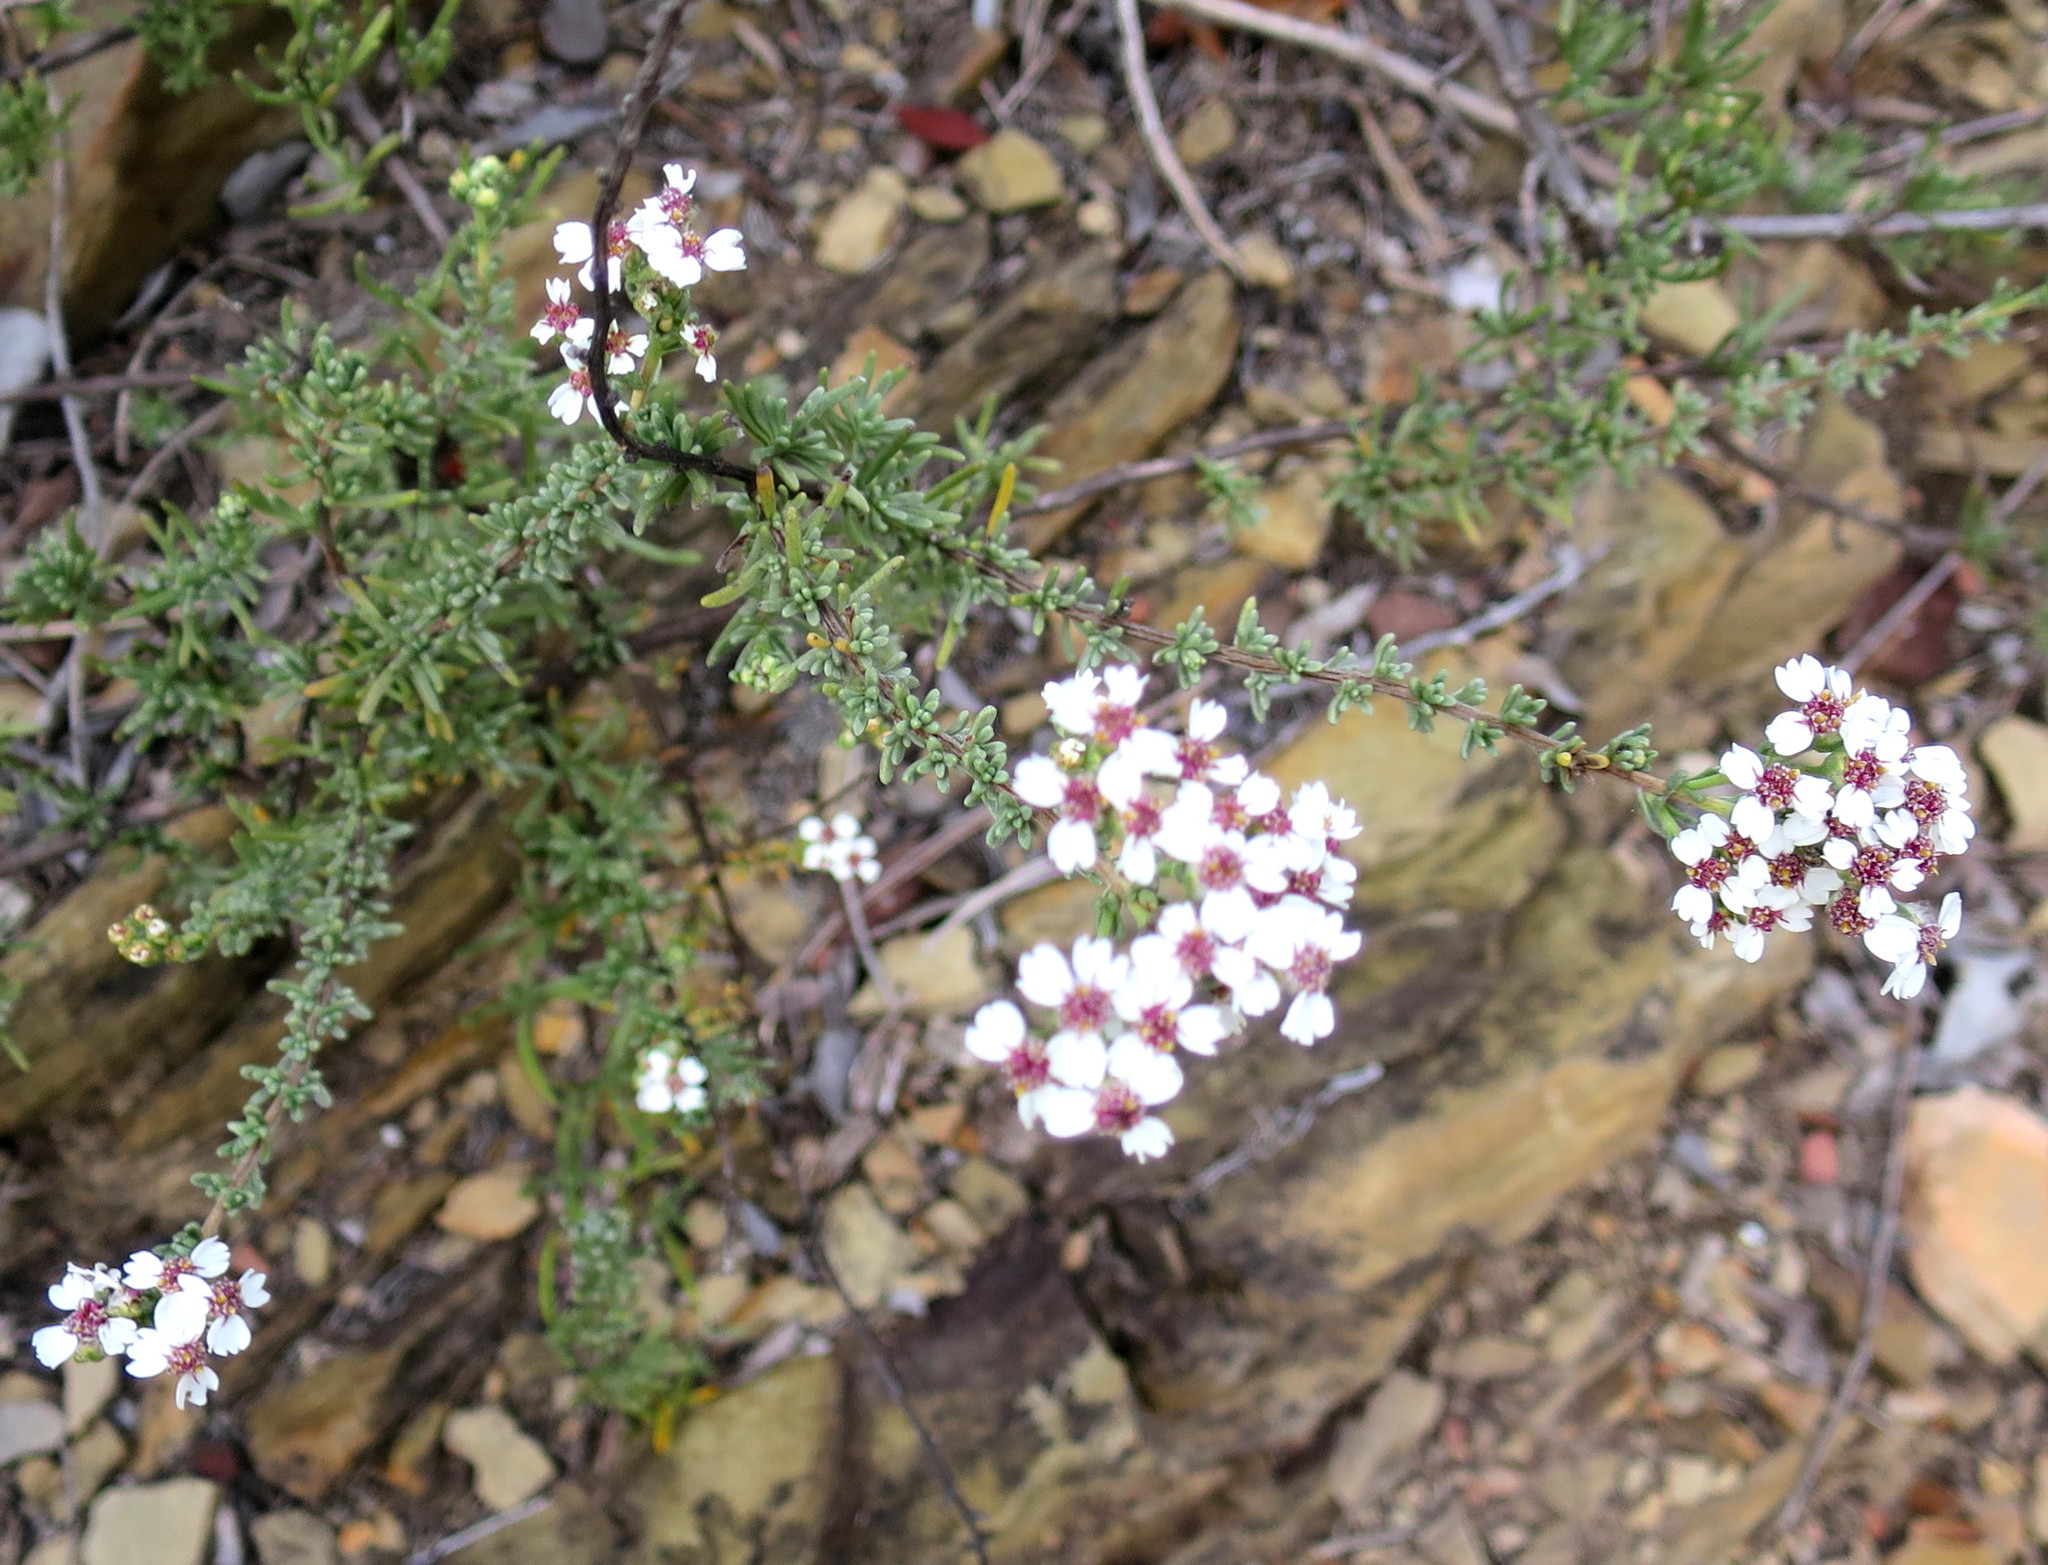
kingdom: Plantae
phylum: Tracheophyta
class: Magnoliopsida
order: Asterales
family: Asteraceae
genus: Eriocephalus
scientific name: Eriocephalus africanus
